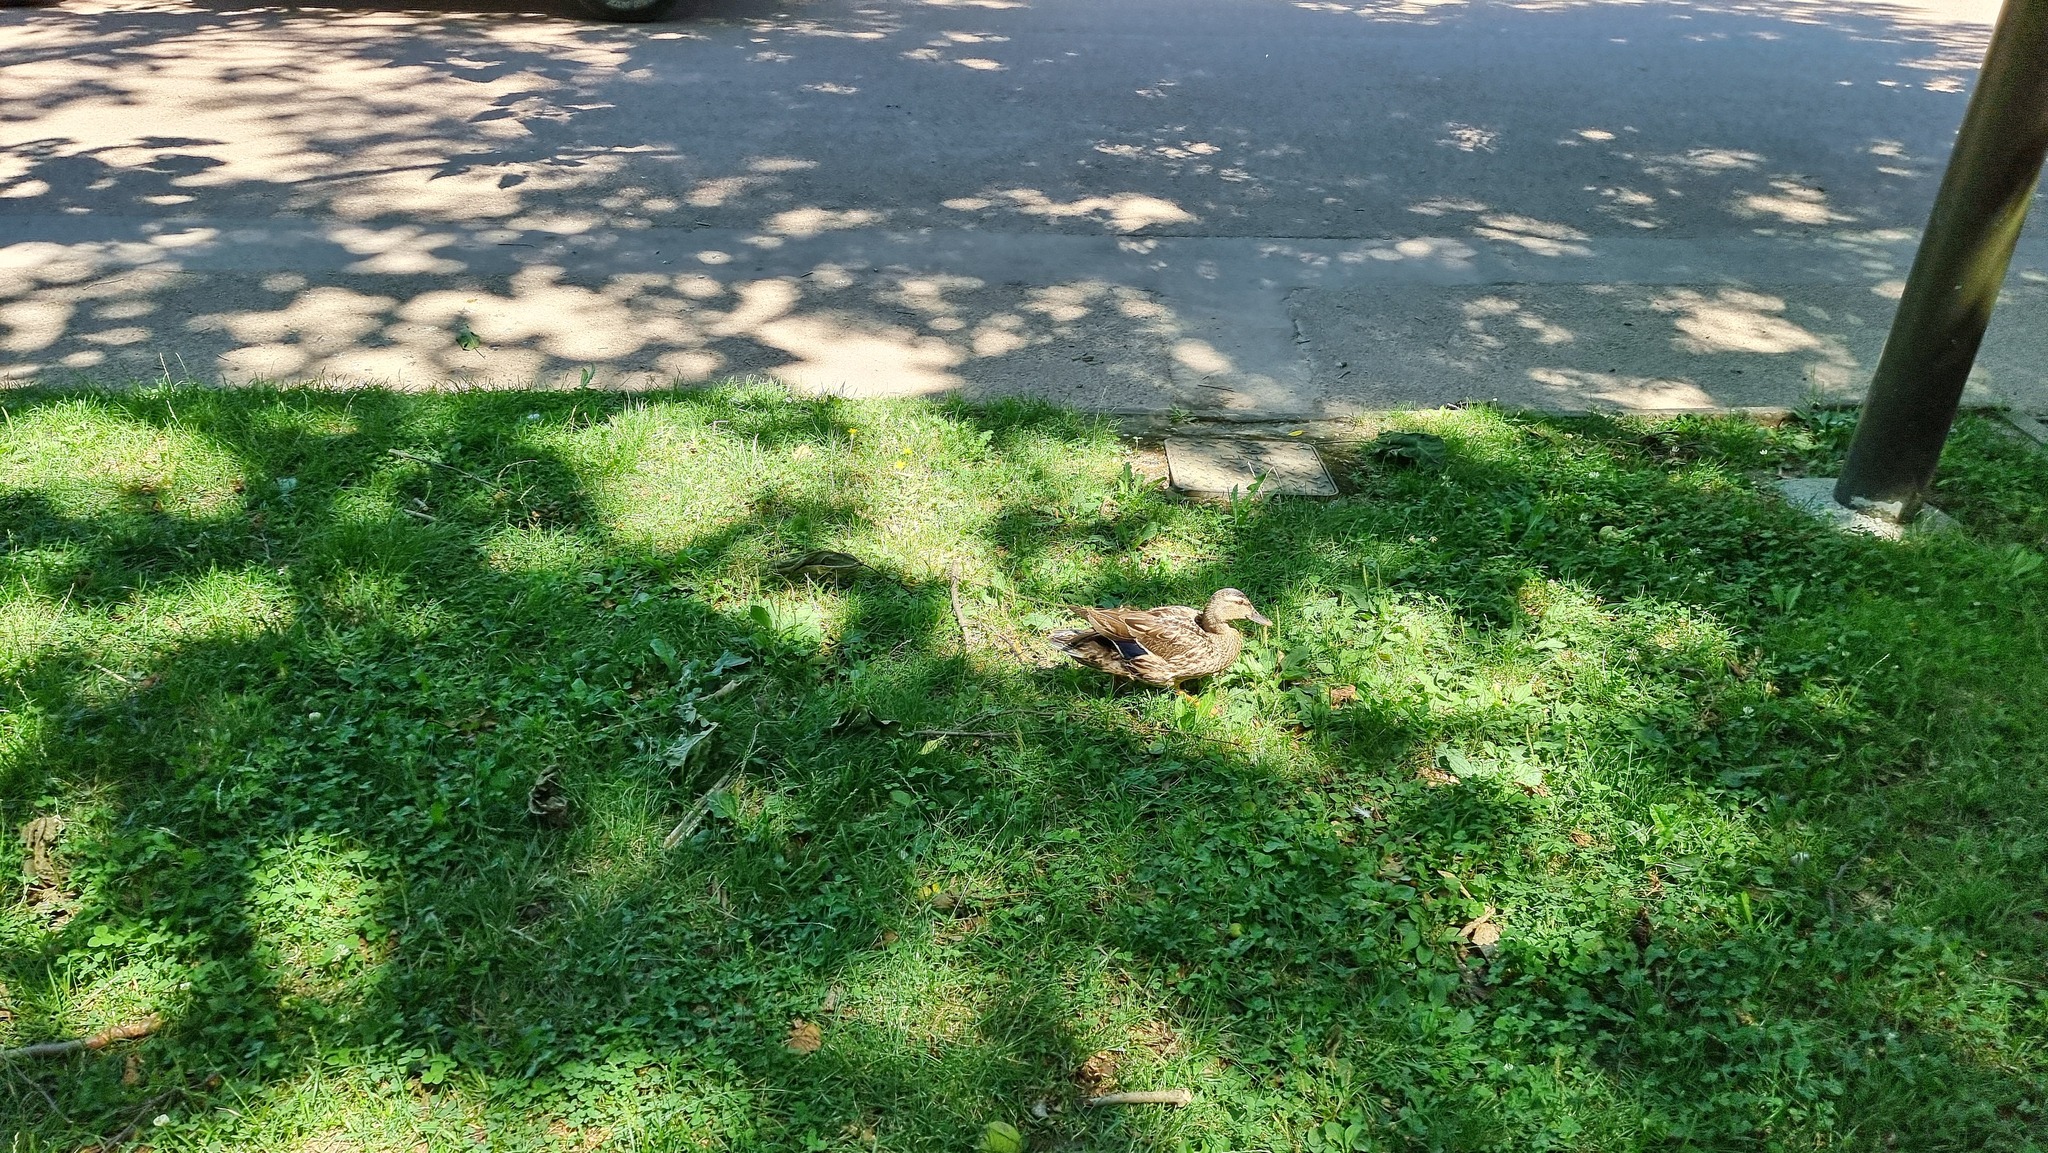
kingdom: Animalia
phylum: Chordata
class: Aves
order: Anseriformes
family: Anatidae
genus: Anas
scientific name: Anas platyrhynchos
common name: Mallard
